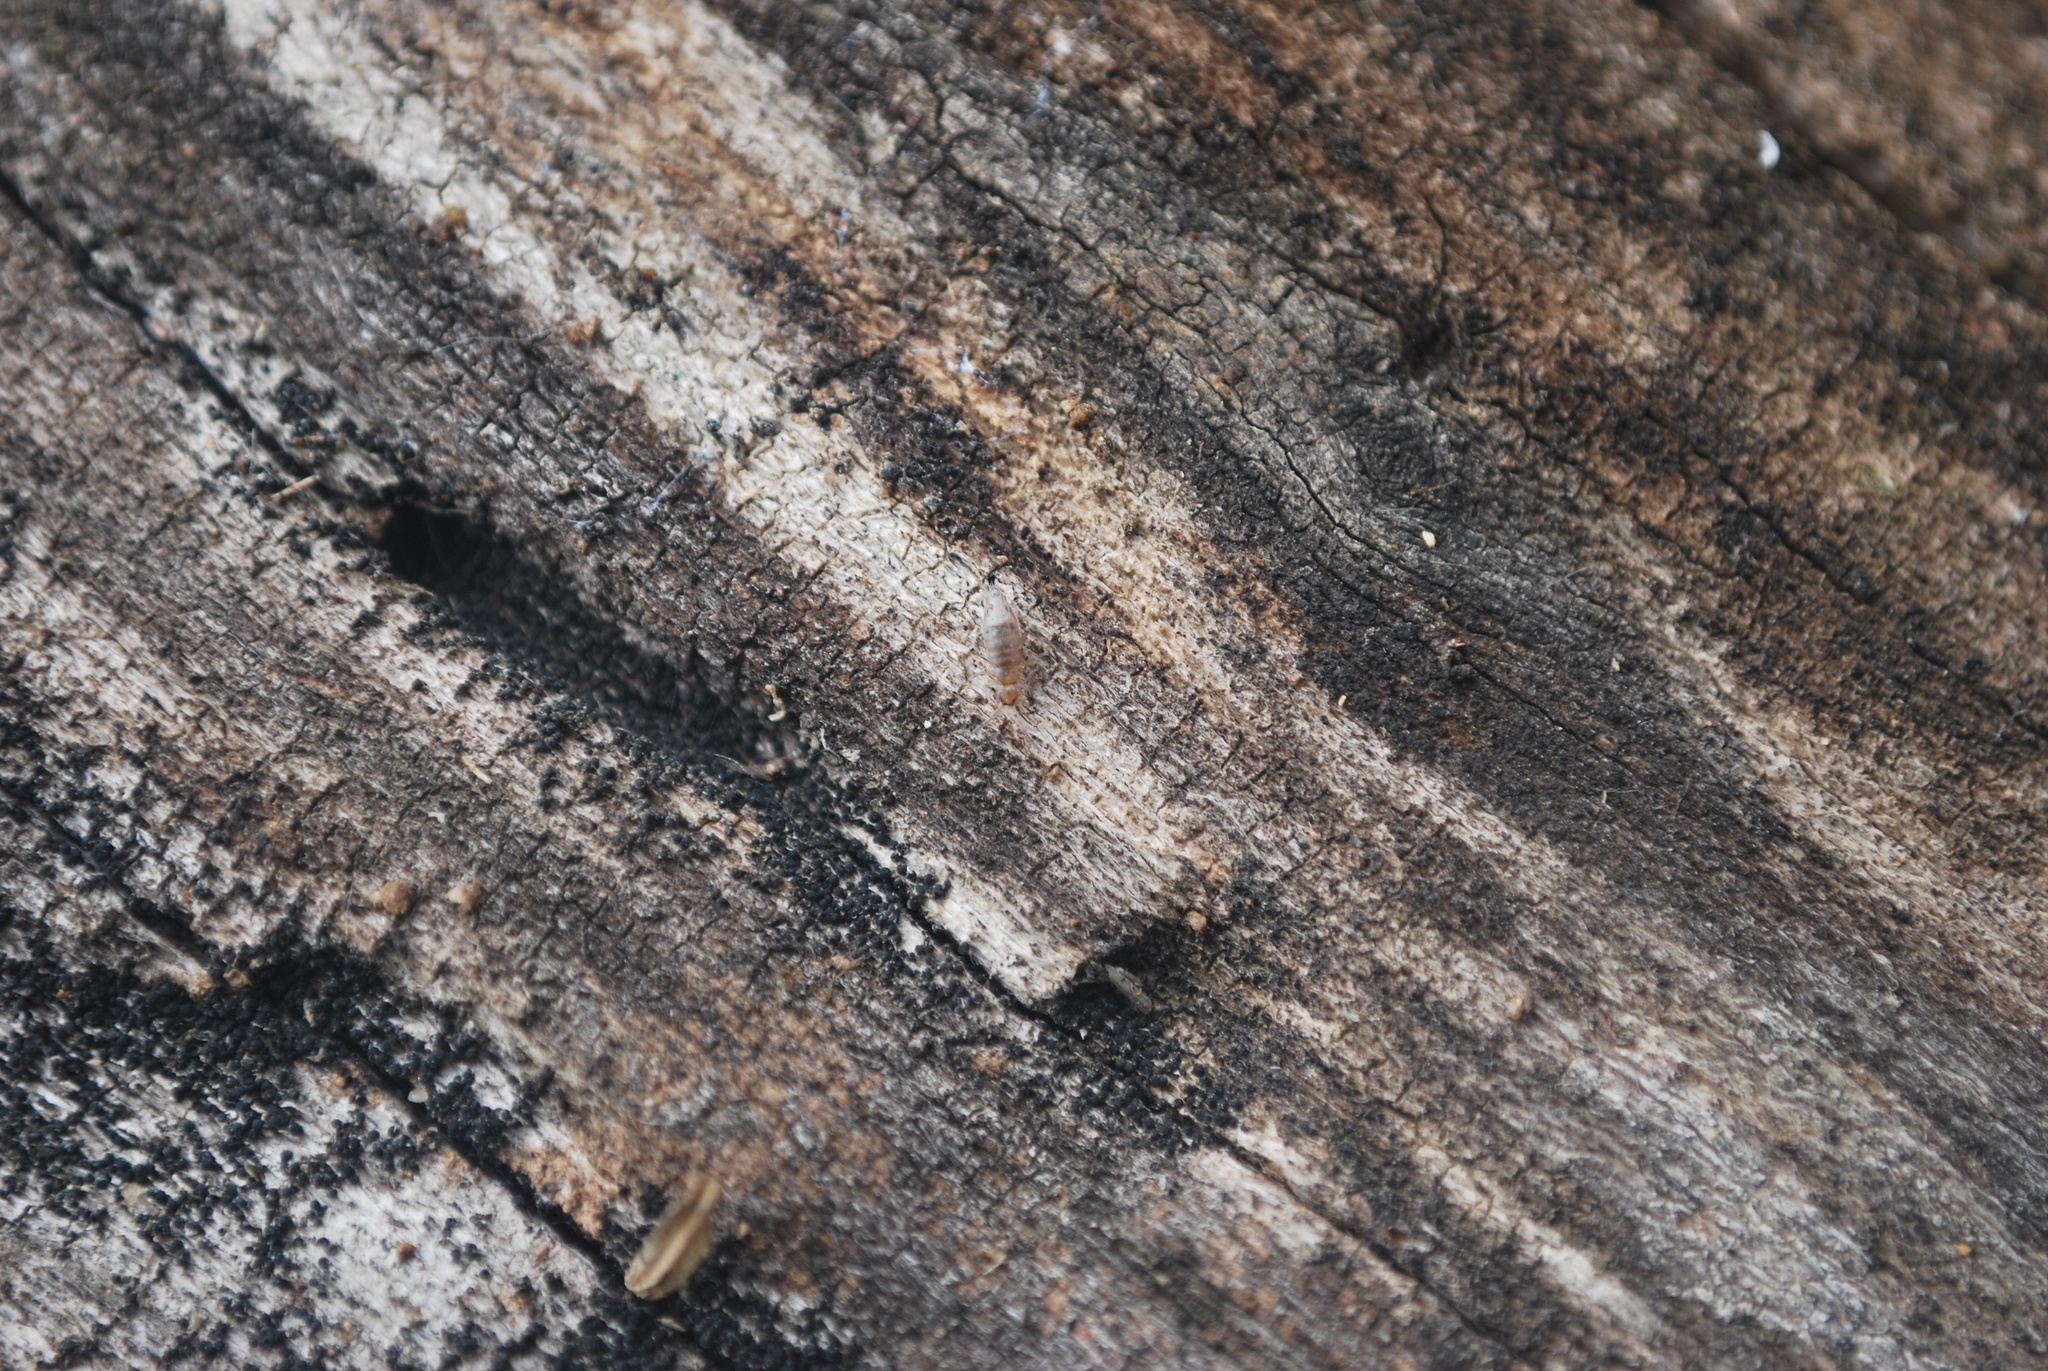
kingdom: Animalia
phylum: Arthropoda
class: Collembola
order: Entomobryomorpha
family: Entomobryidae
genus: Willowsia
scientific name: Willowsia nigromaculata
